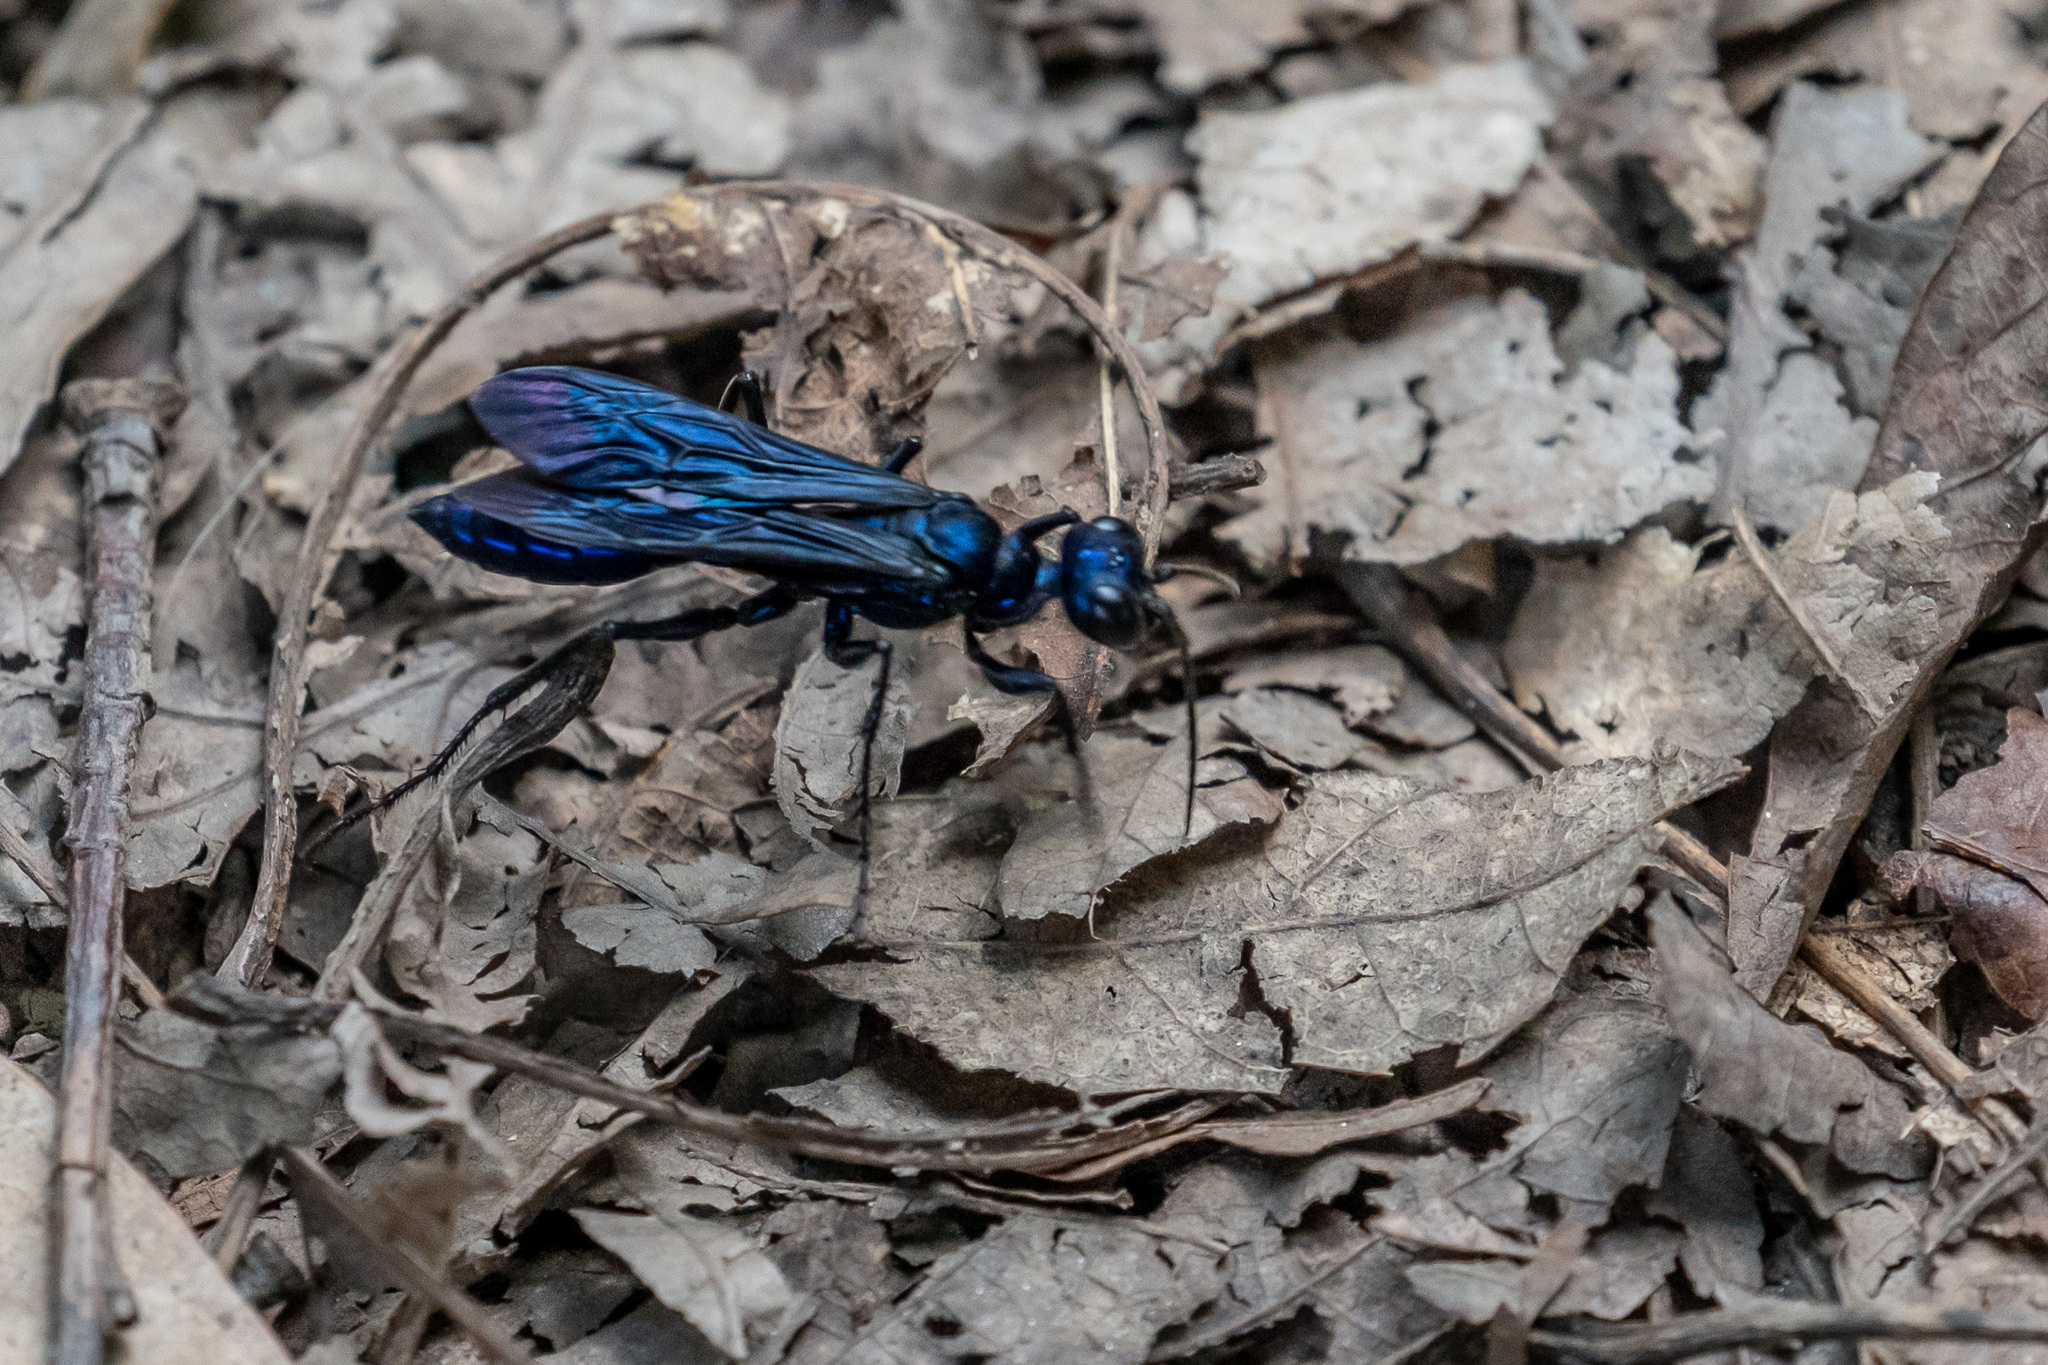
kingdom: Animalia
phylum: Arthropoda
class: Insecta
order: Hymenoptera
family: Sphecidae
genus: Chlorion
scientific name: Chlorion aerarium
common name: Steel-blue cricket hunter
